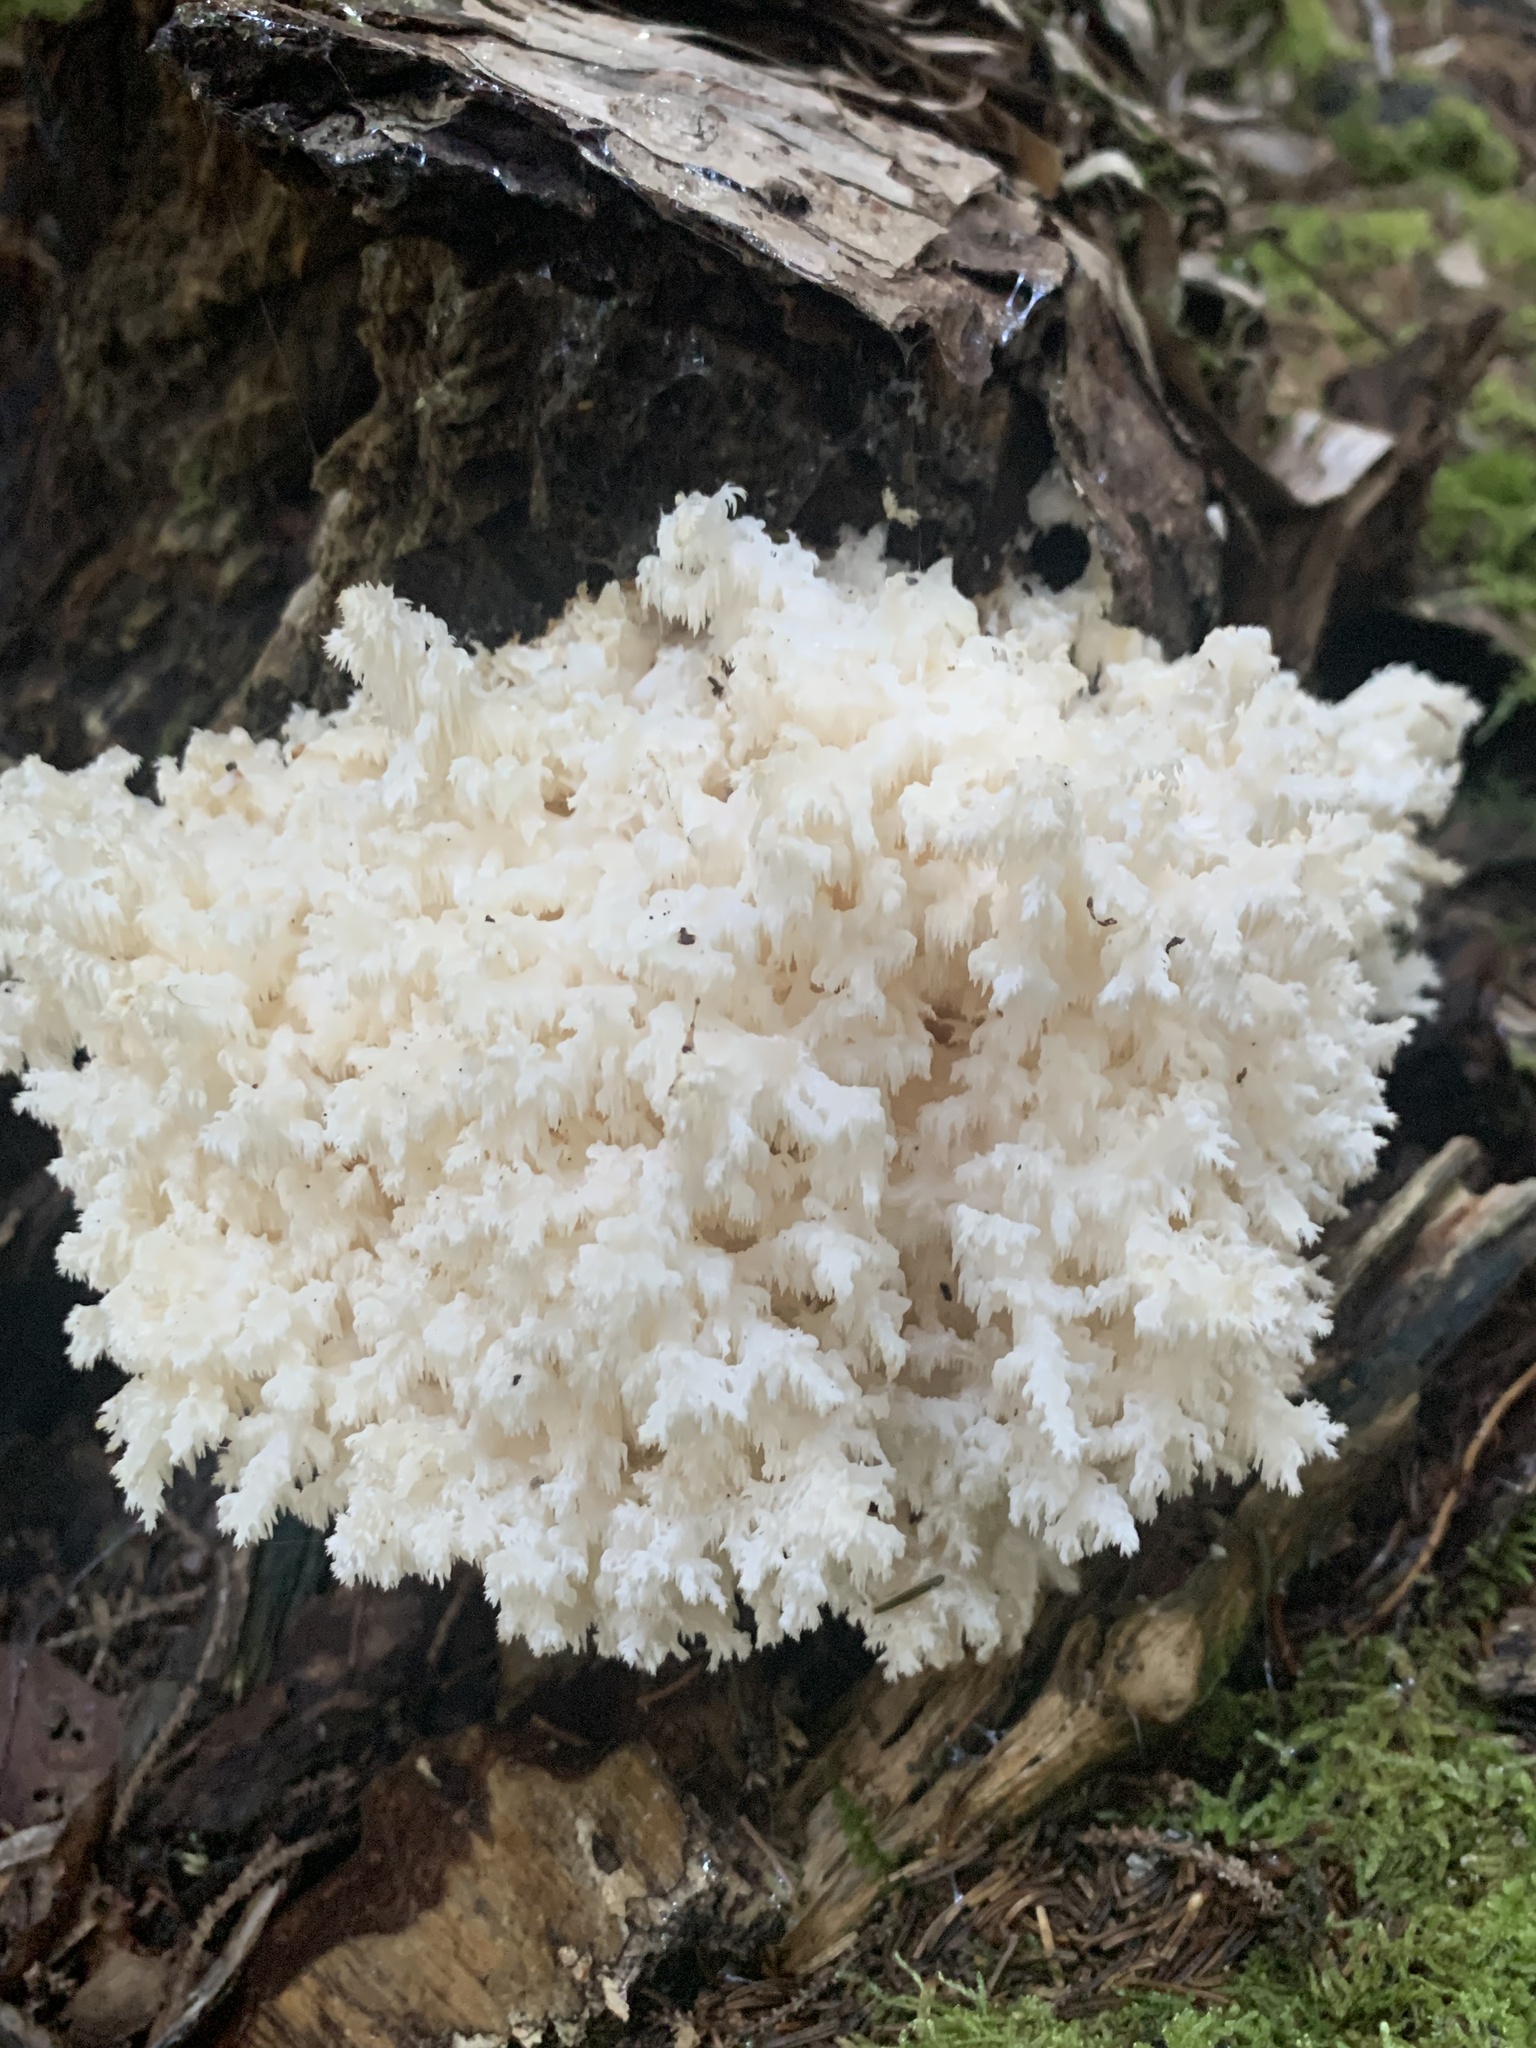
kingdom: Fungi
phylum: Basidiomycota
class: Agaricomycetes
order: Russulales
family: Hericiaceae
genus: Hericium
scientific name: Hericium coralloides
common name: Coral tooth
